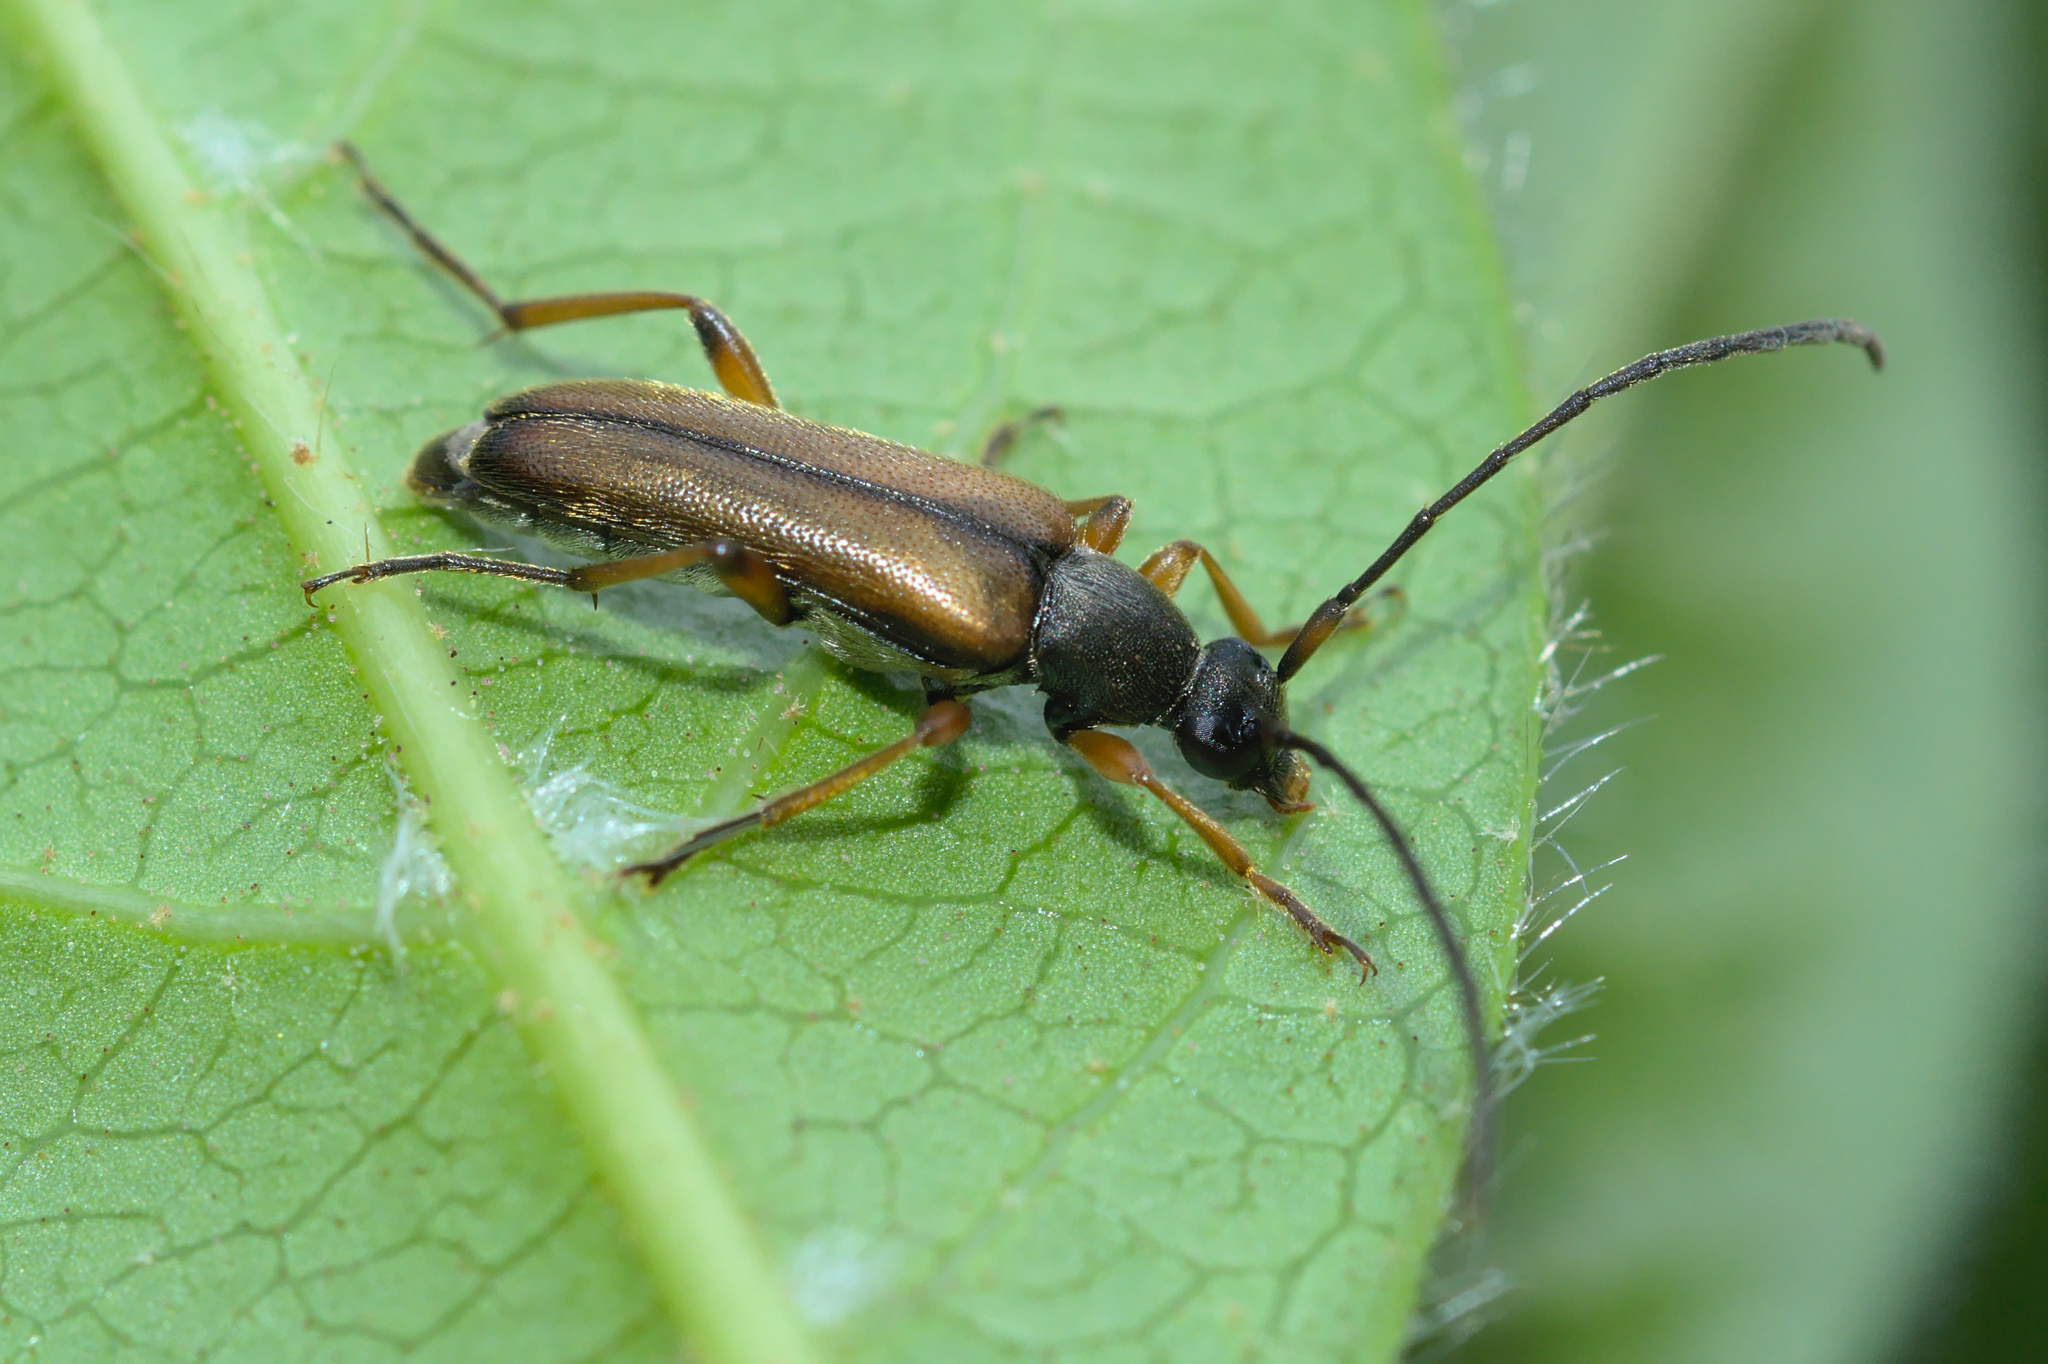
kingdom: Animalia
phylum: Arthropoda
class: Insecta
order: Coleoptera
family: Cerambycidae
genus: Alosterna
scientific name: Alosterna tabacicolor
